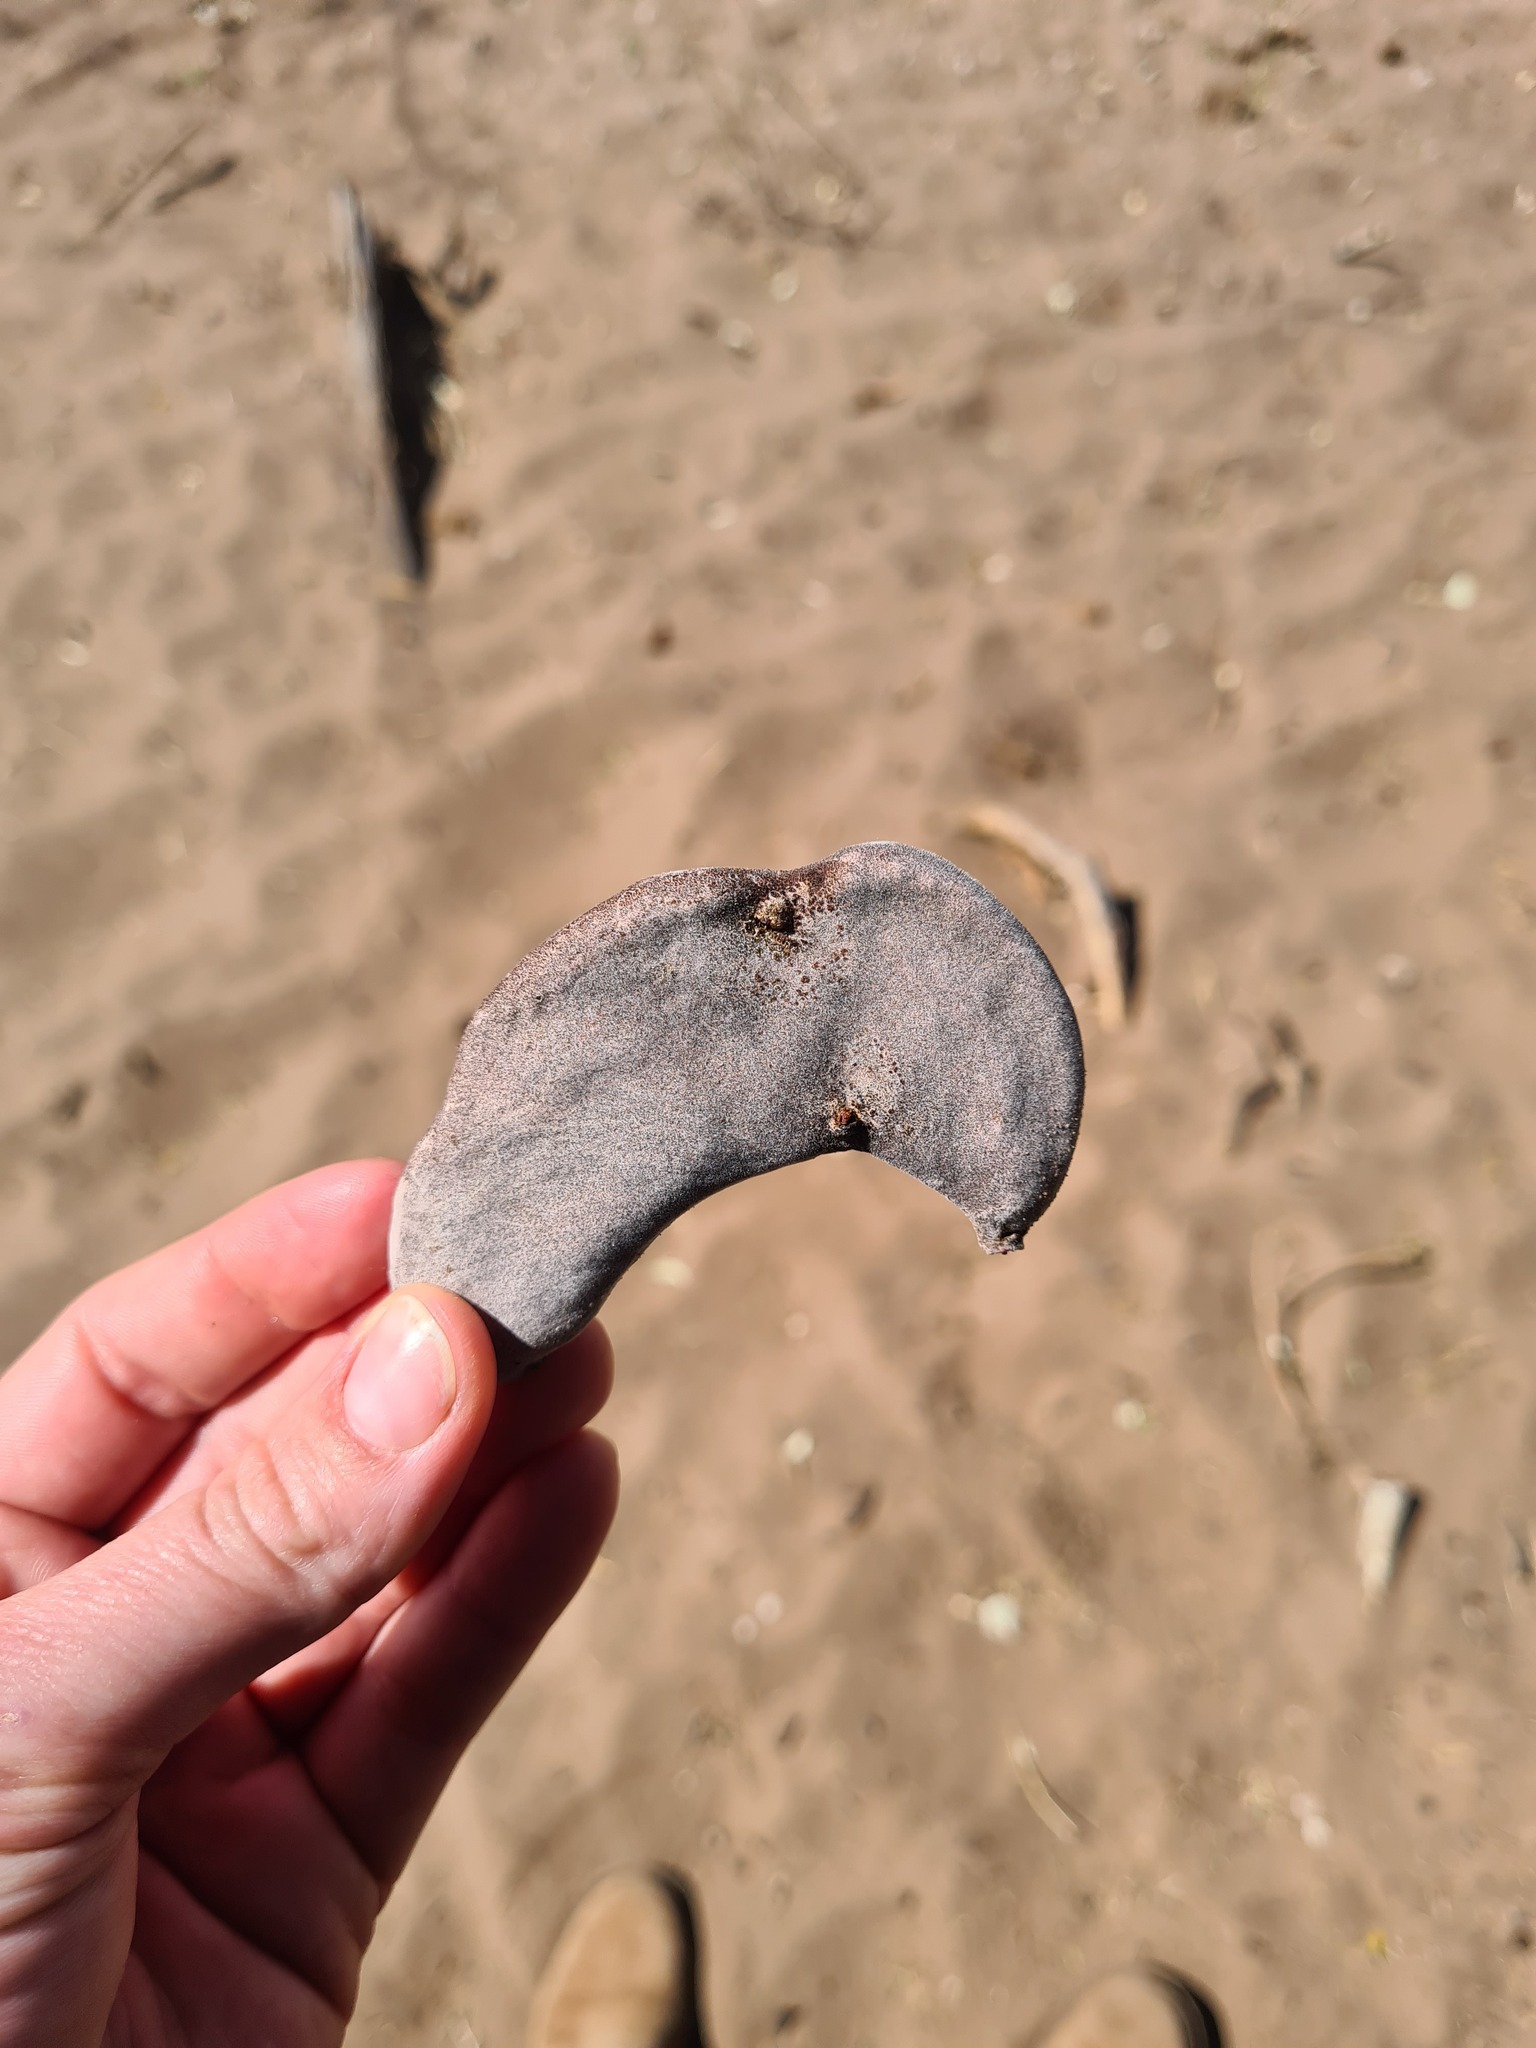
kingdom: Plantae
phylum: Tracheophyta
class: Magnoliopsida
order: Fabales
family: Fabaceae
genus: Vachellia
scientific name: Vachellia erioloba
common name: Camel thorn
